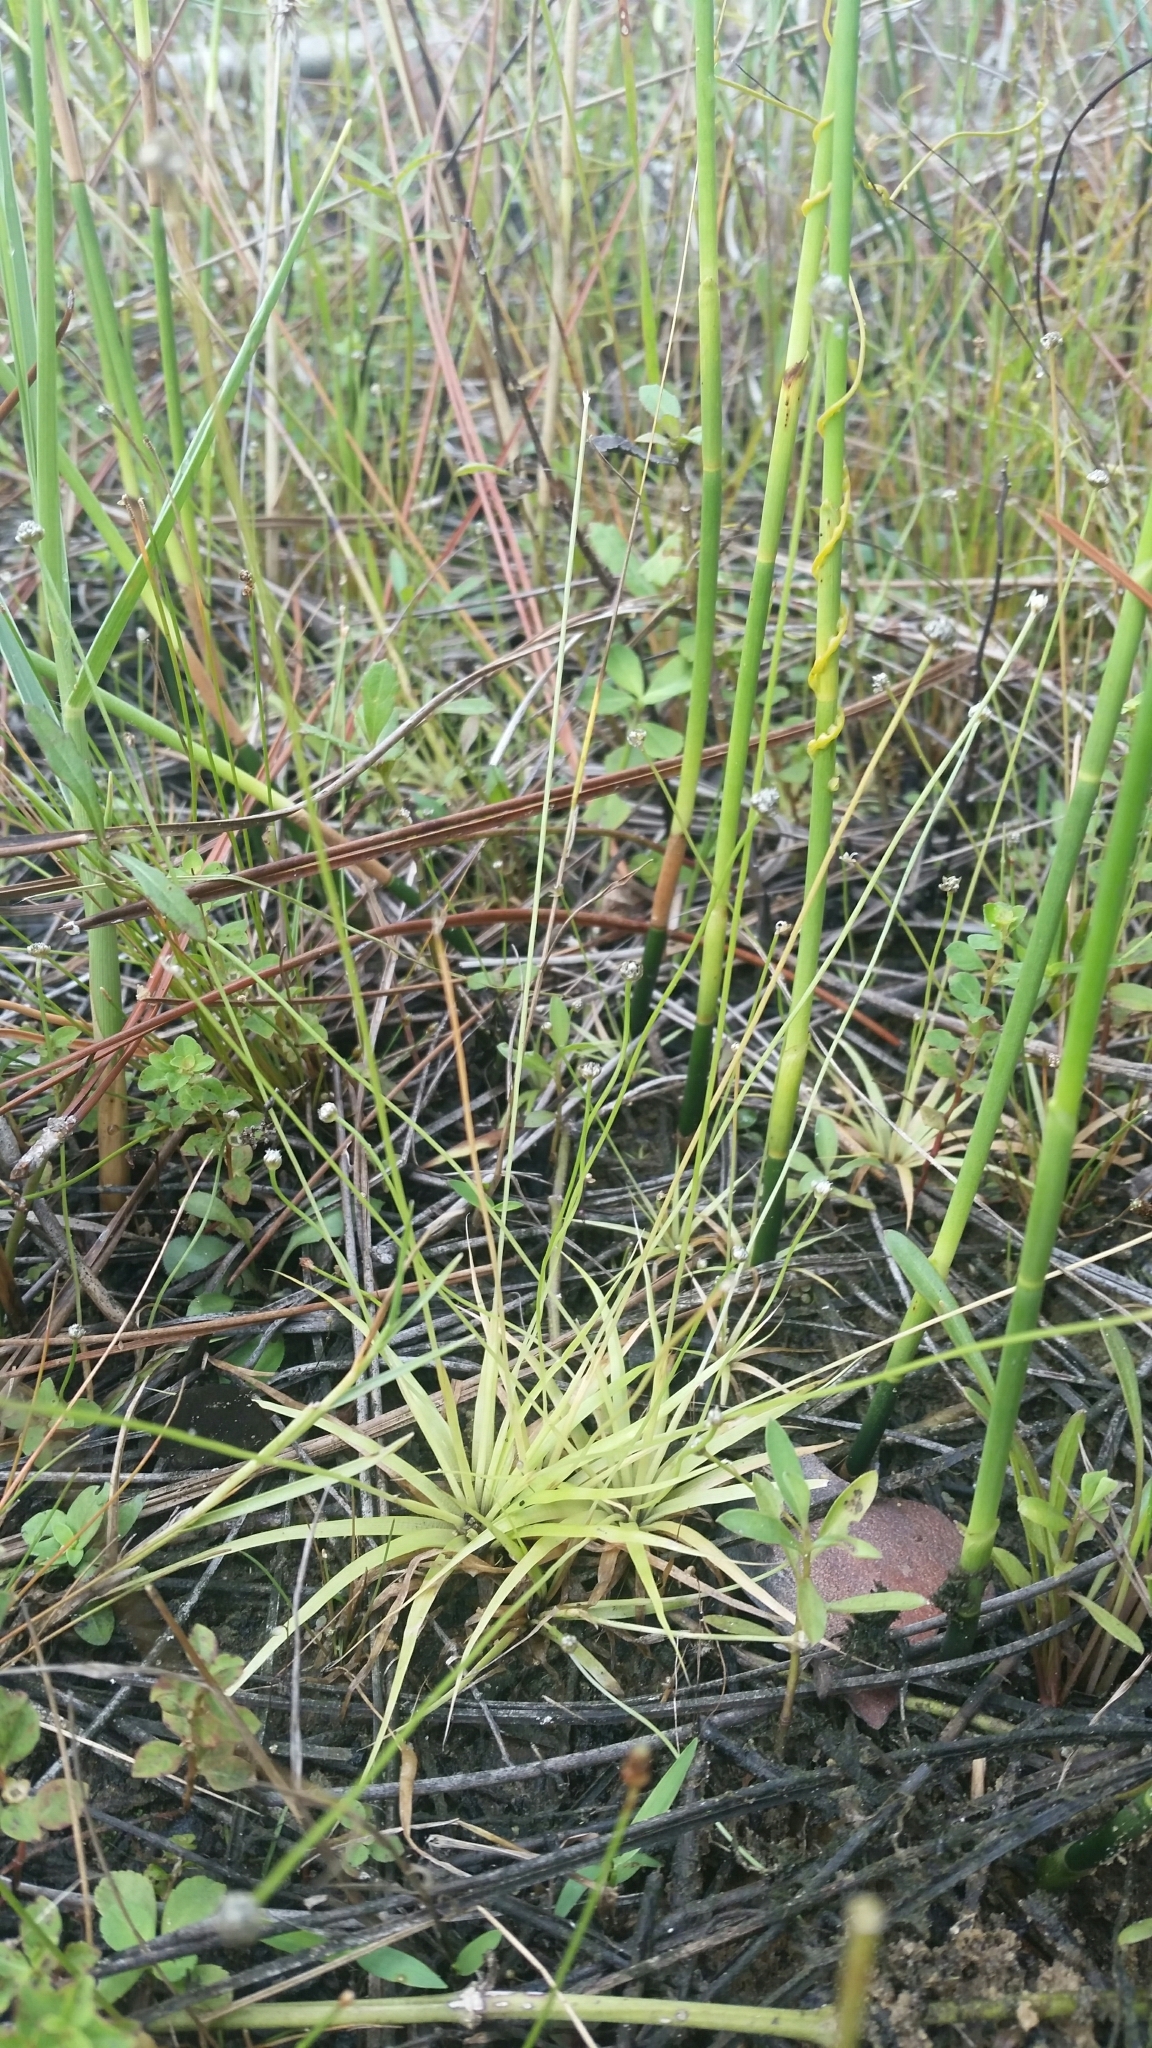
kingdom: Plantae
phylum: Tracheophyta
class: Liliopsida
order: Poales
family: Eriocaulaceae
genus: Eriocaulon
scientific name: Eriocaulon ravenelii
